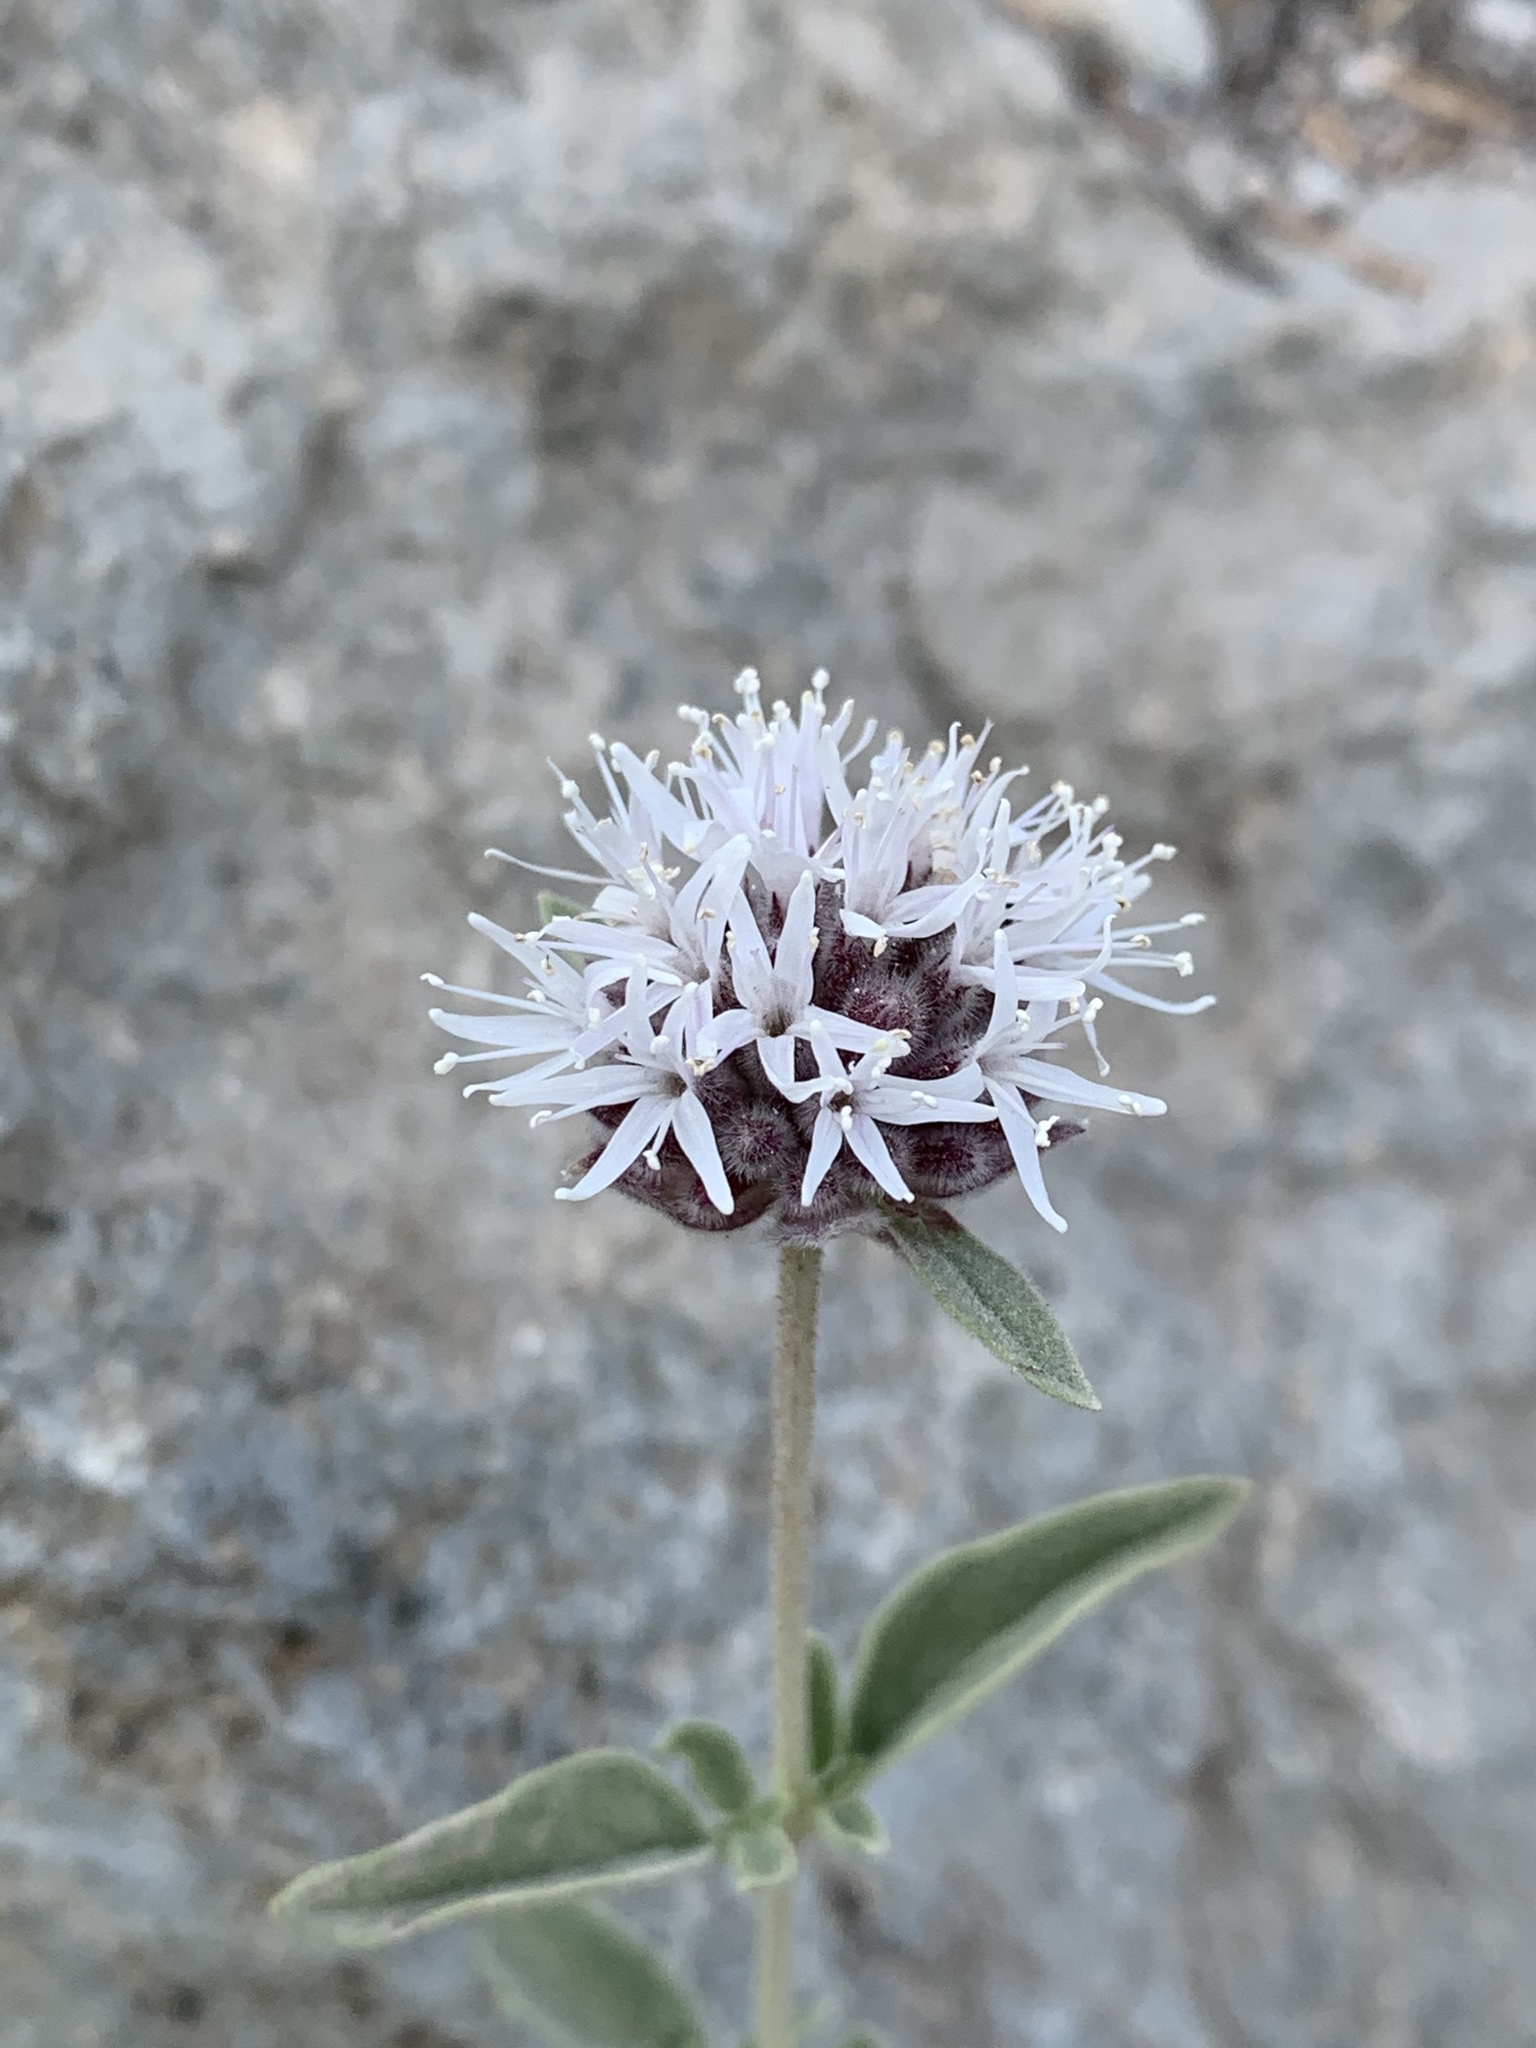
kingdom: Plantae
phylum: Tracheophyta
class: Magnoliopsida
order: Lamiales
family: Lamiaceae
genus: Monardella
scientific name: Monardella odoratissima
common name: Pacific monardella
